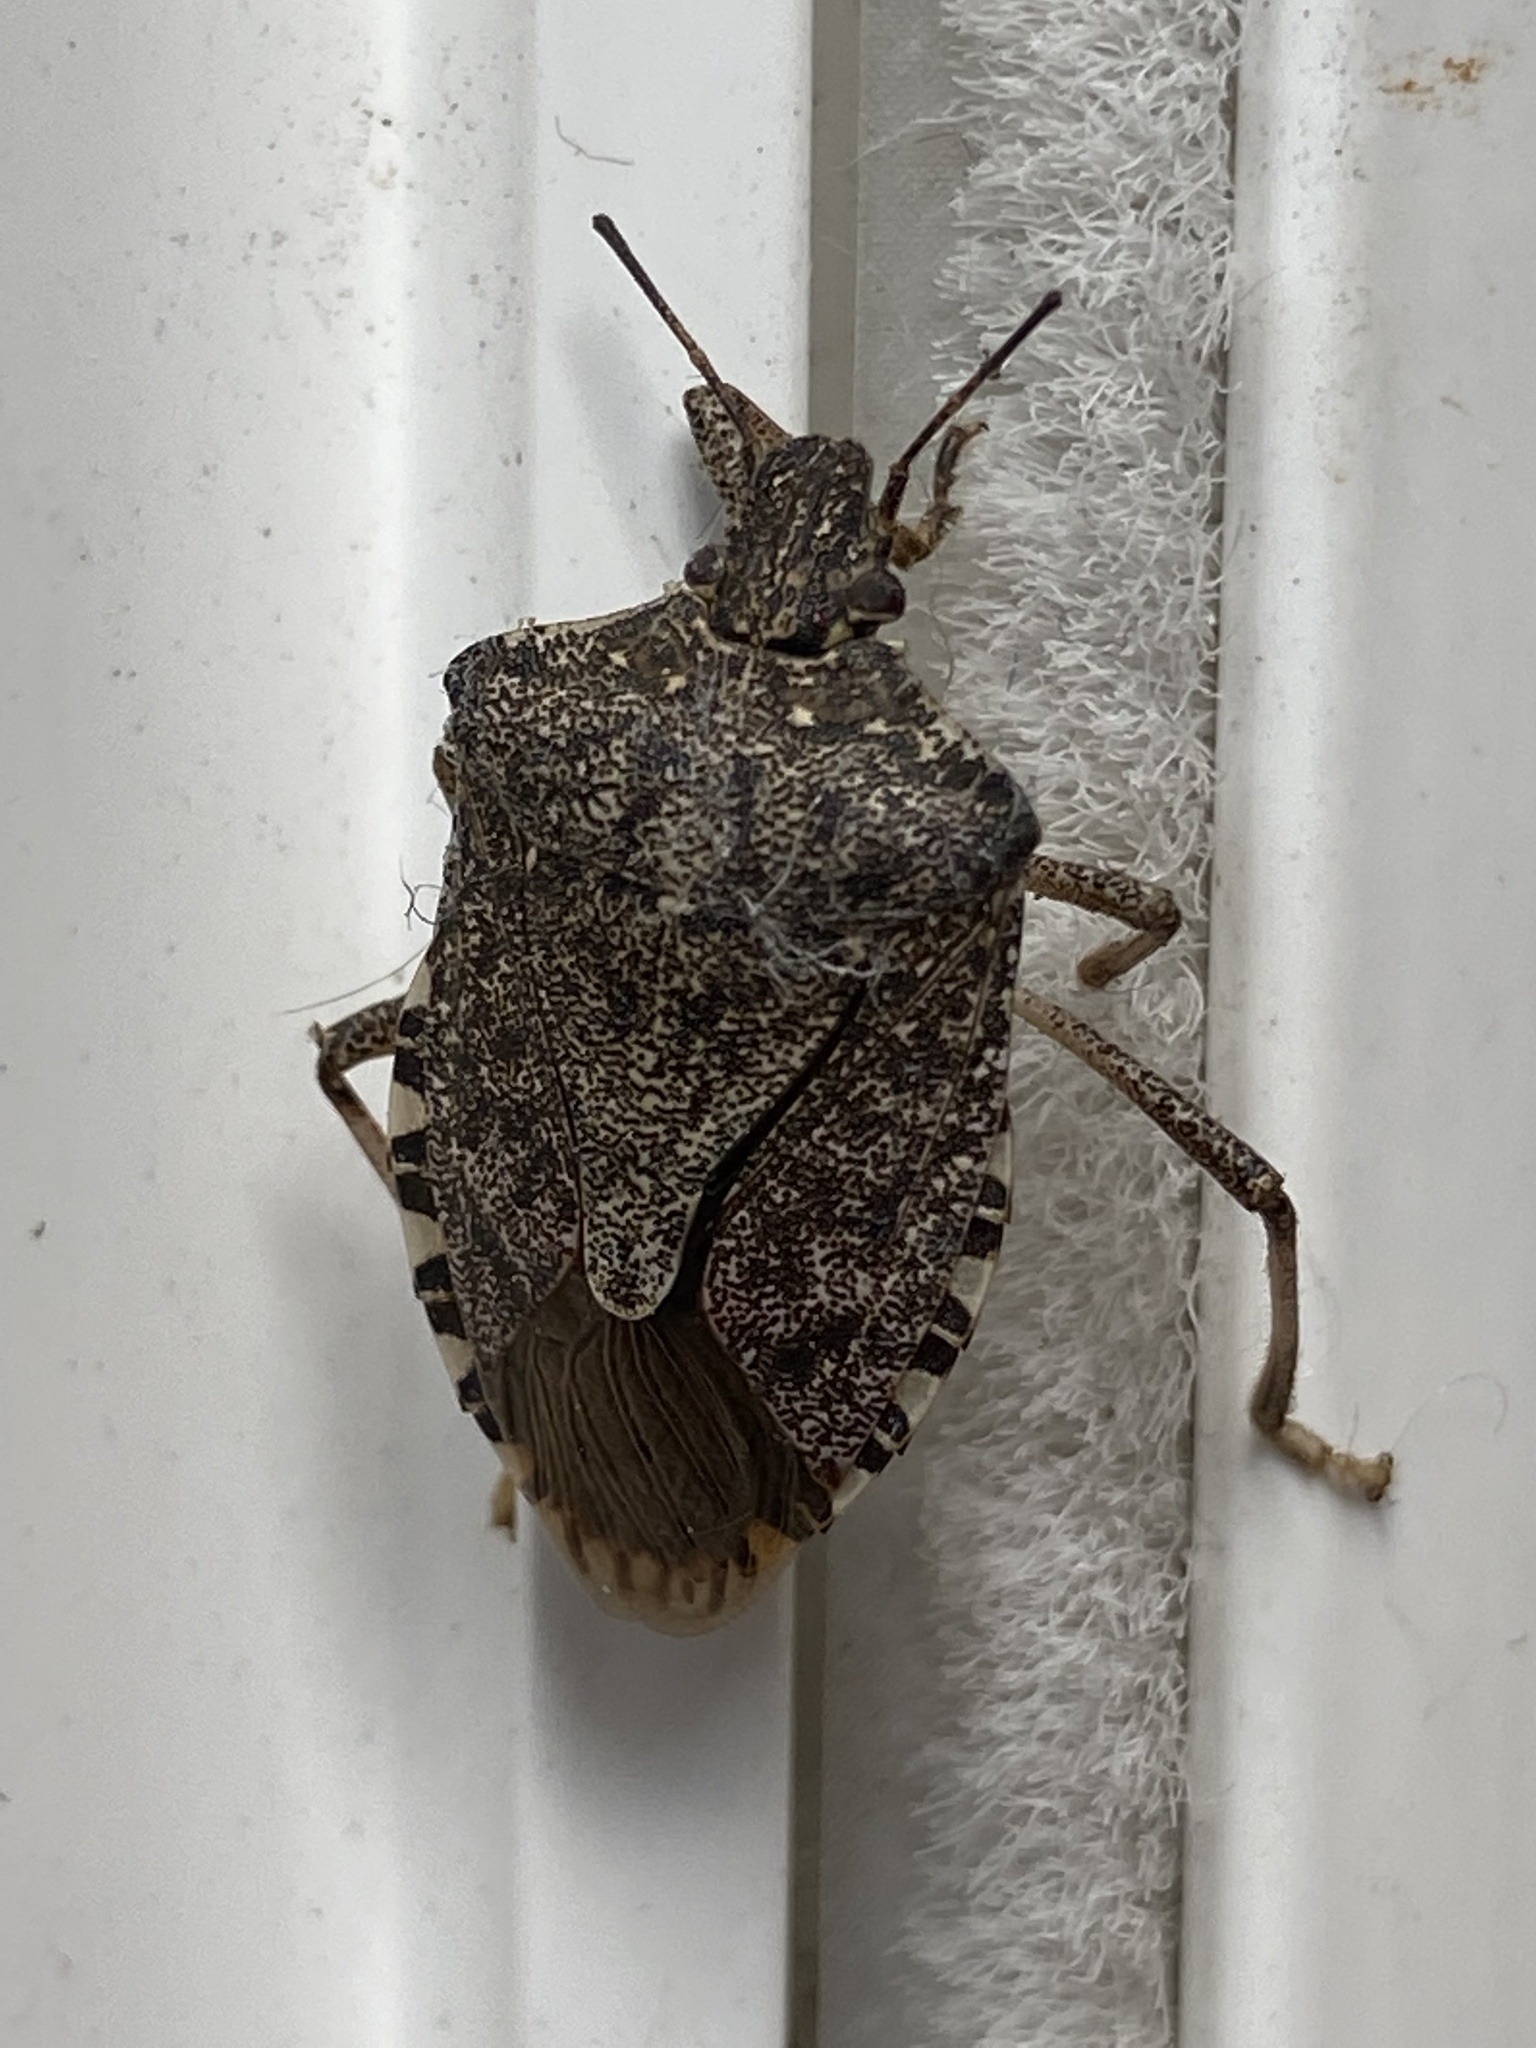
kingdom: Animalia
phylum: Arthropoda
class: Insecta
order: Hemiptera
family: Pentatomidae
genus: Halyomorpha
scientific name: Halyomorpha halys
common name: Brown marmorated stink bug
